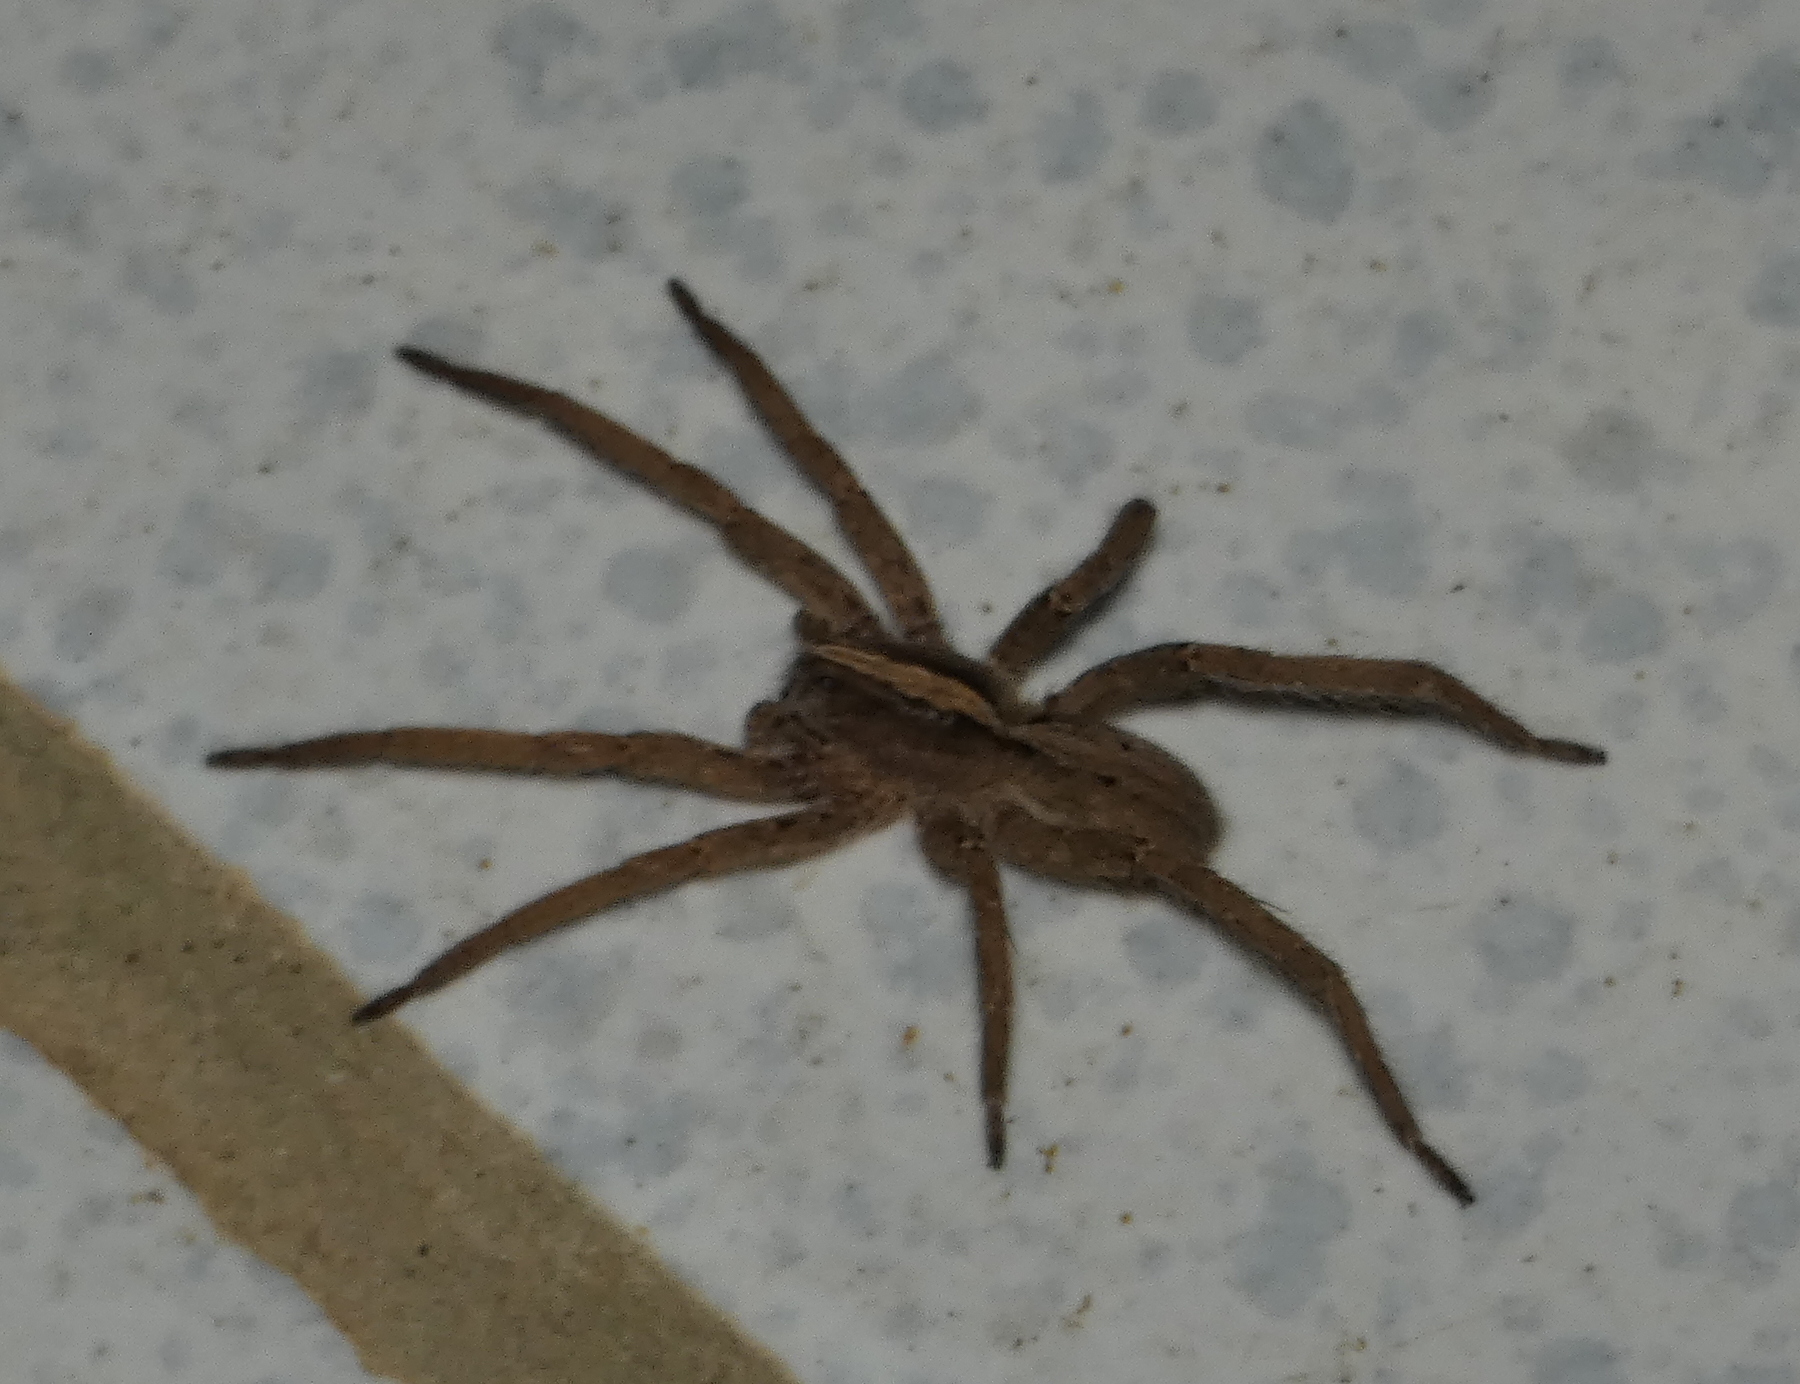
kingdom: Animalia
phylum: Arthropoda
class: Arachnida
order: Araneae
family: Ctenidae
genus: Parabatinga
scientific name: Parabatinga brevipes
